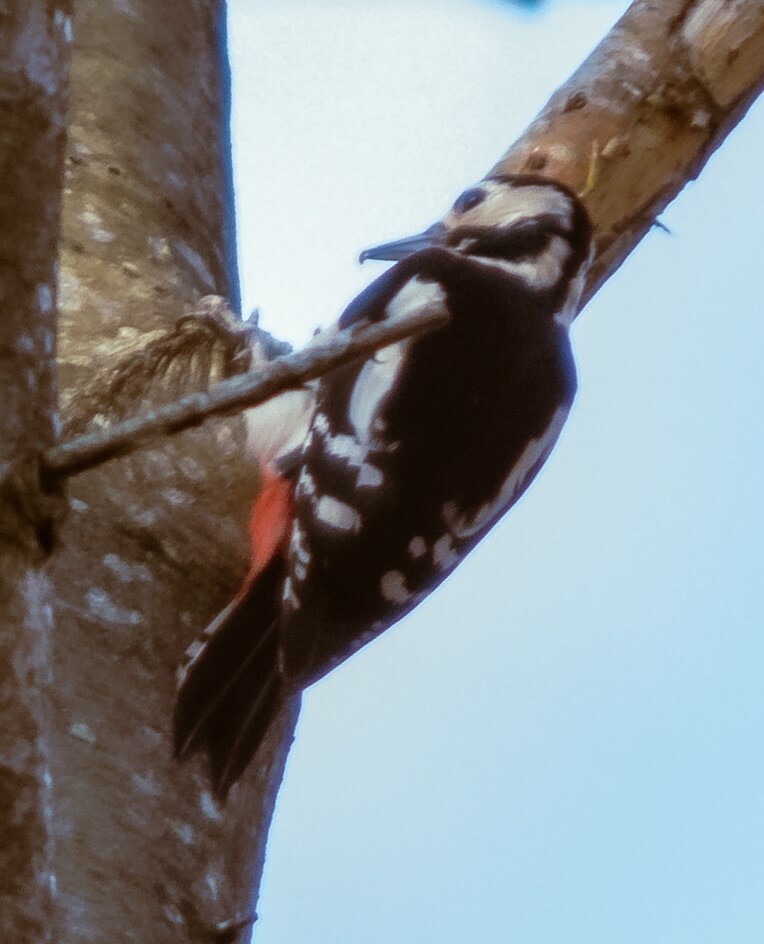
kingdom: Animalia
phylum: Chordata
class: Aves
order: Piciformes
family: Picidae
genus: Dendrocopos
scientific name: Dendrocopos major
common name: Great spotted woodpecker
